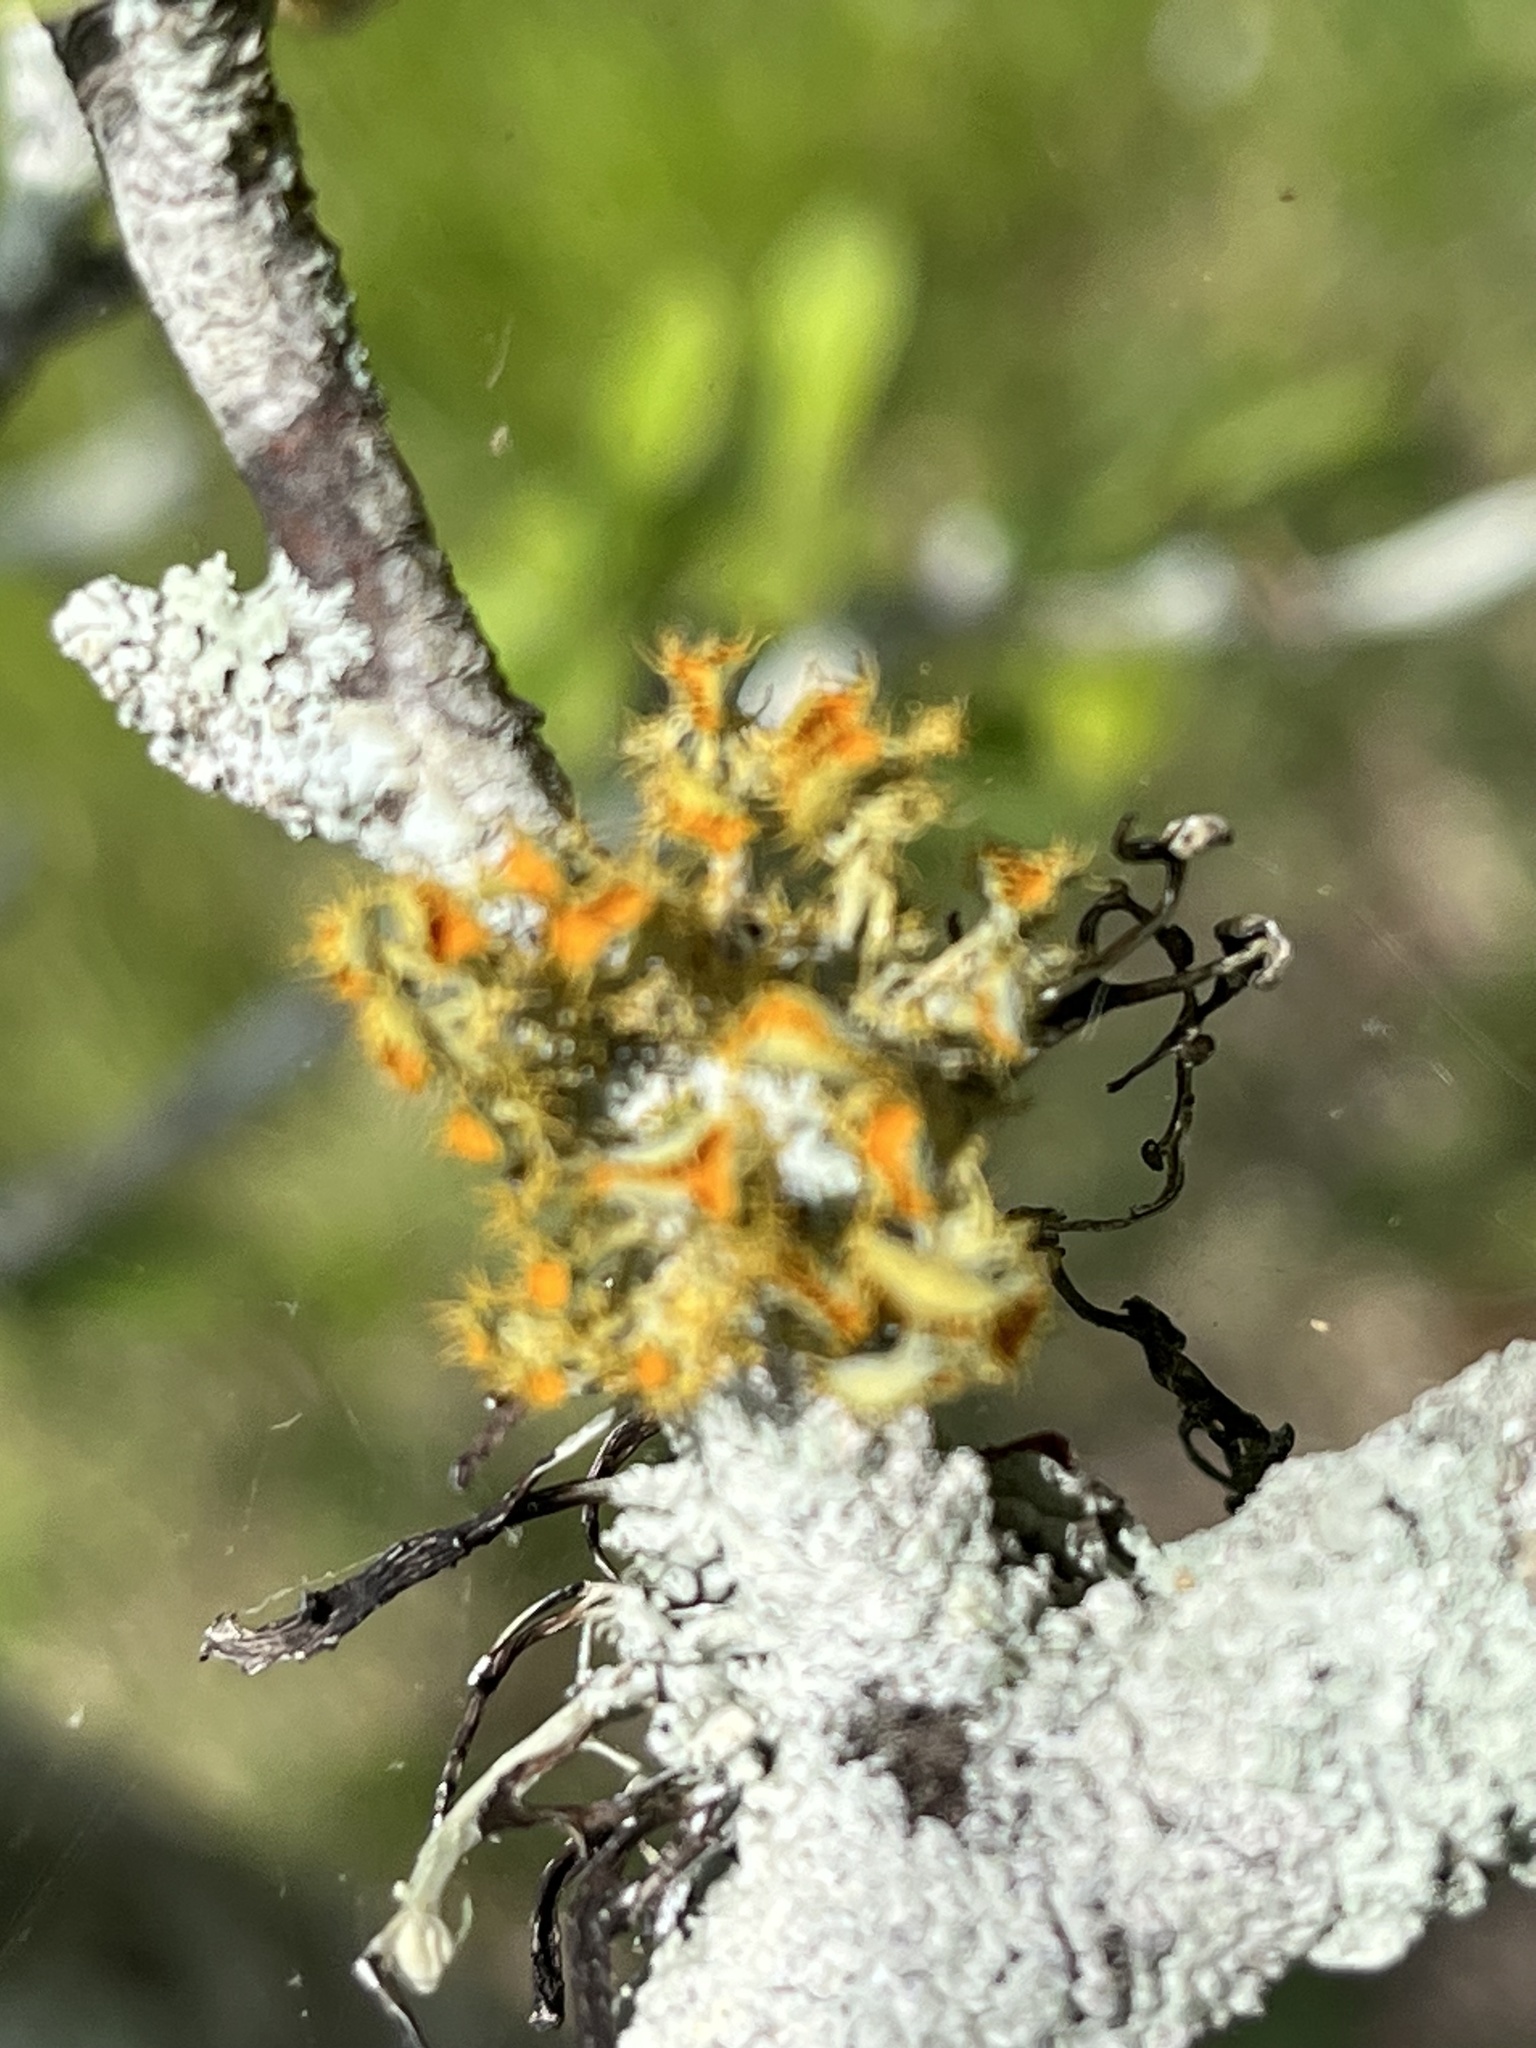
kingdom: Fungi
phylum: Ascomycota
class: Lecanoromycetes
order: Teloschistales
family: Teloschistaceae
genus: Niorma
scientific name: Niorma chrysophthalma
